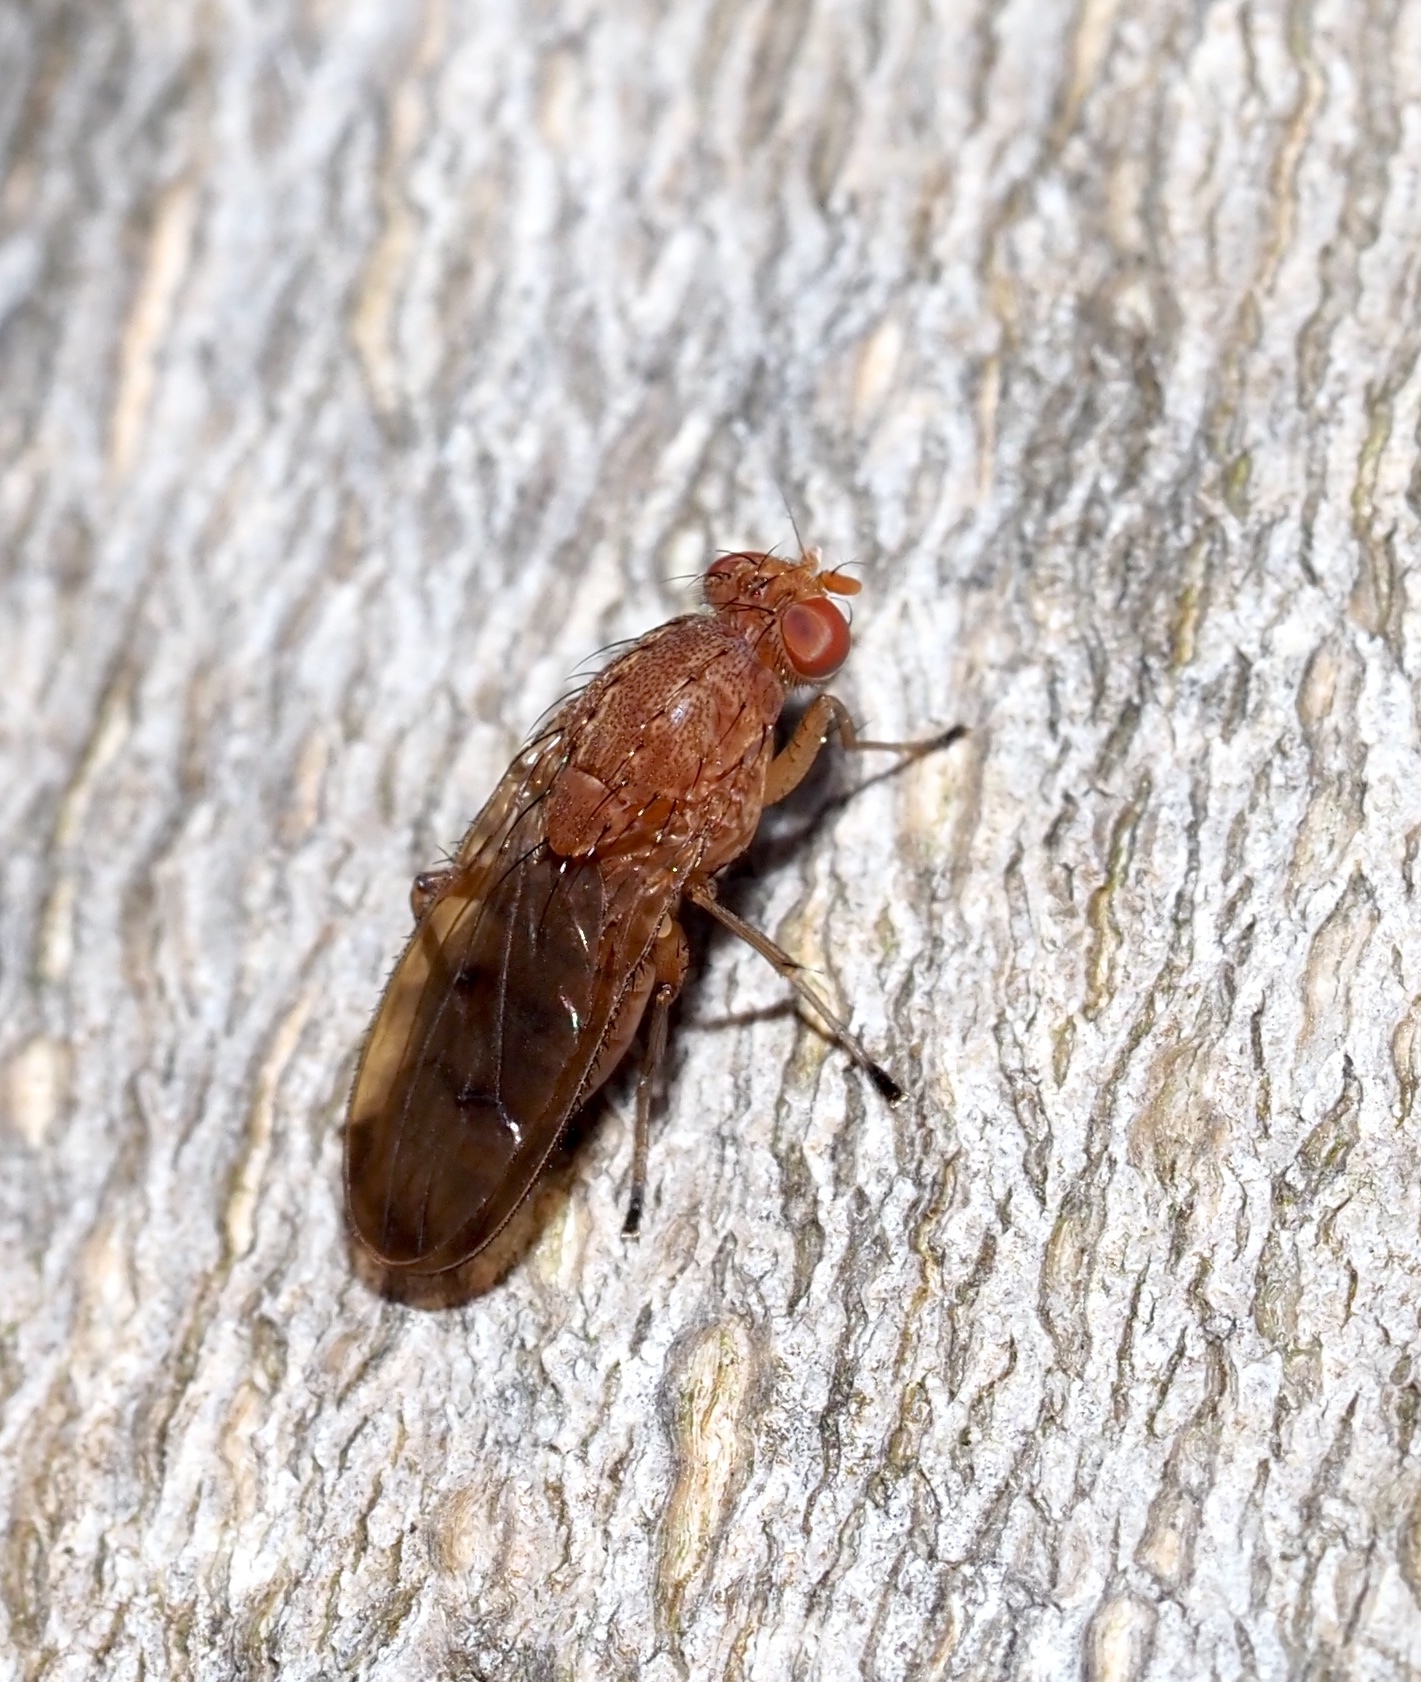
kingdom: Animalia
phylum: Arthropoda
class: Insecta
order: Diptera
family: Heleomyzidae
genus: Suillia
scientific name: Suillia quinquepunctata
